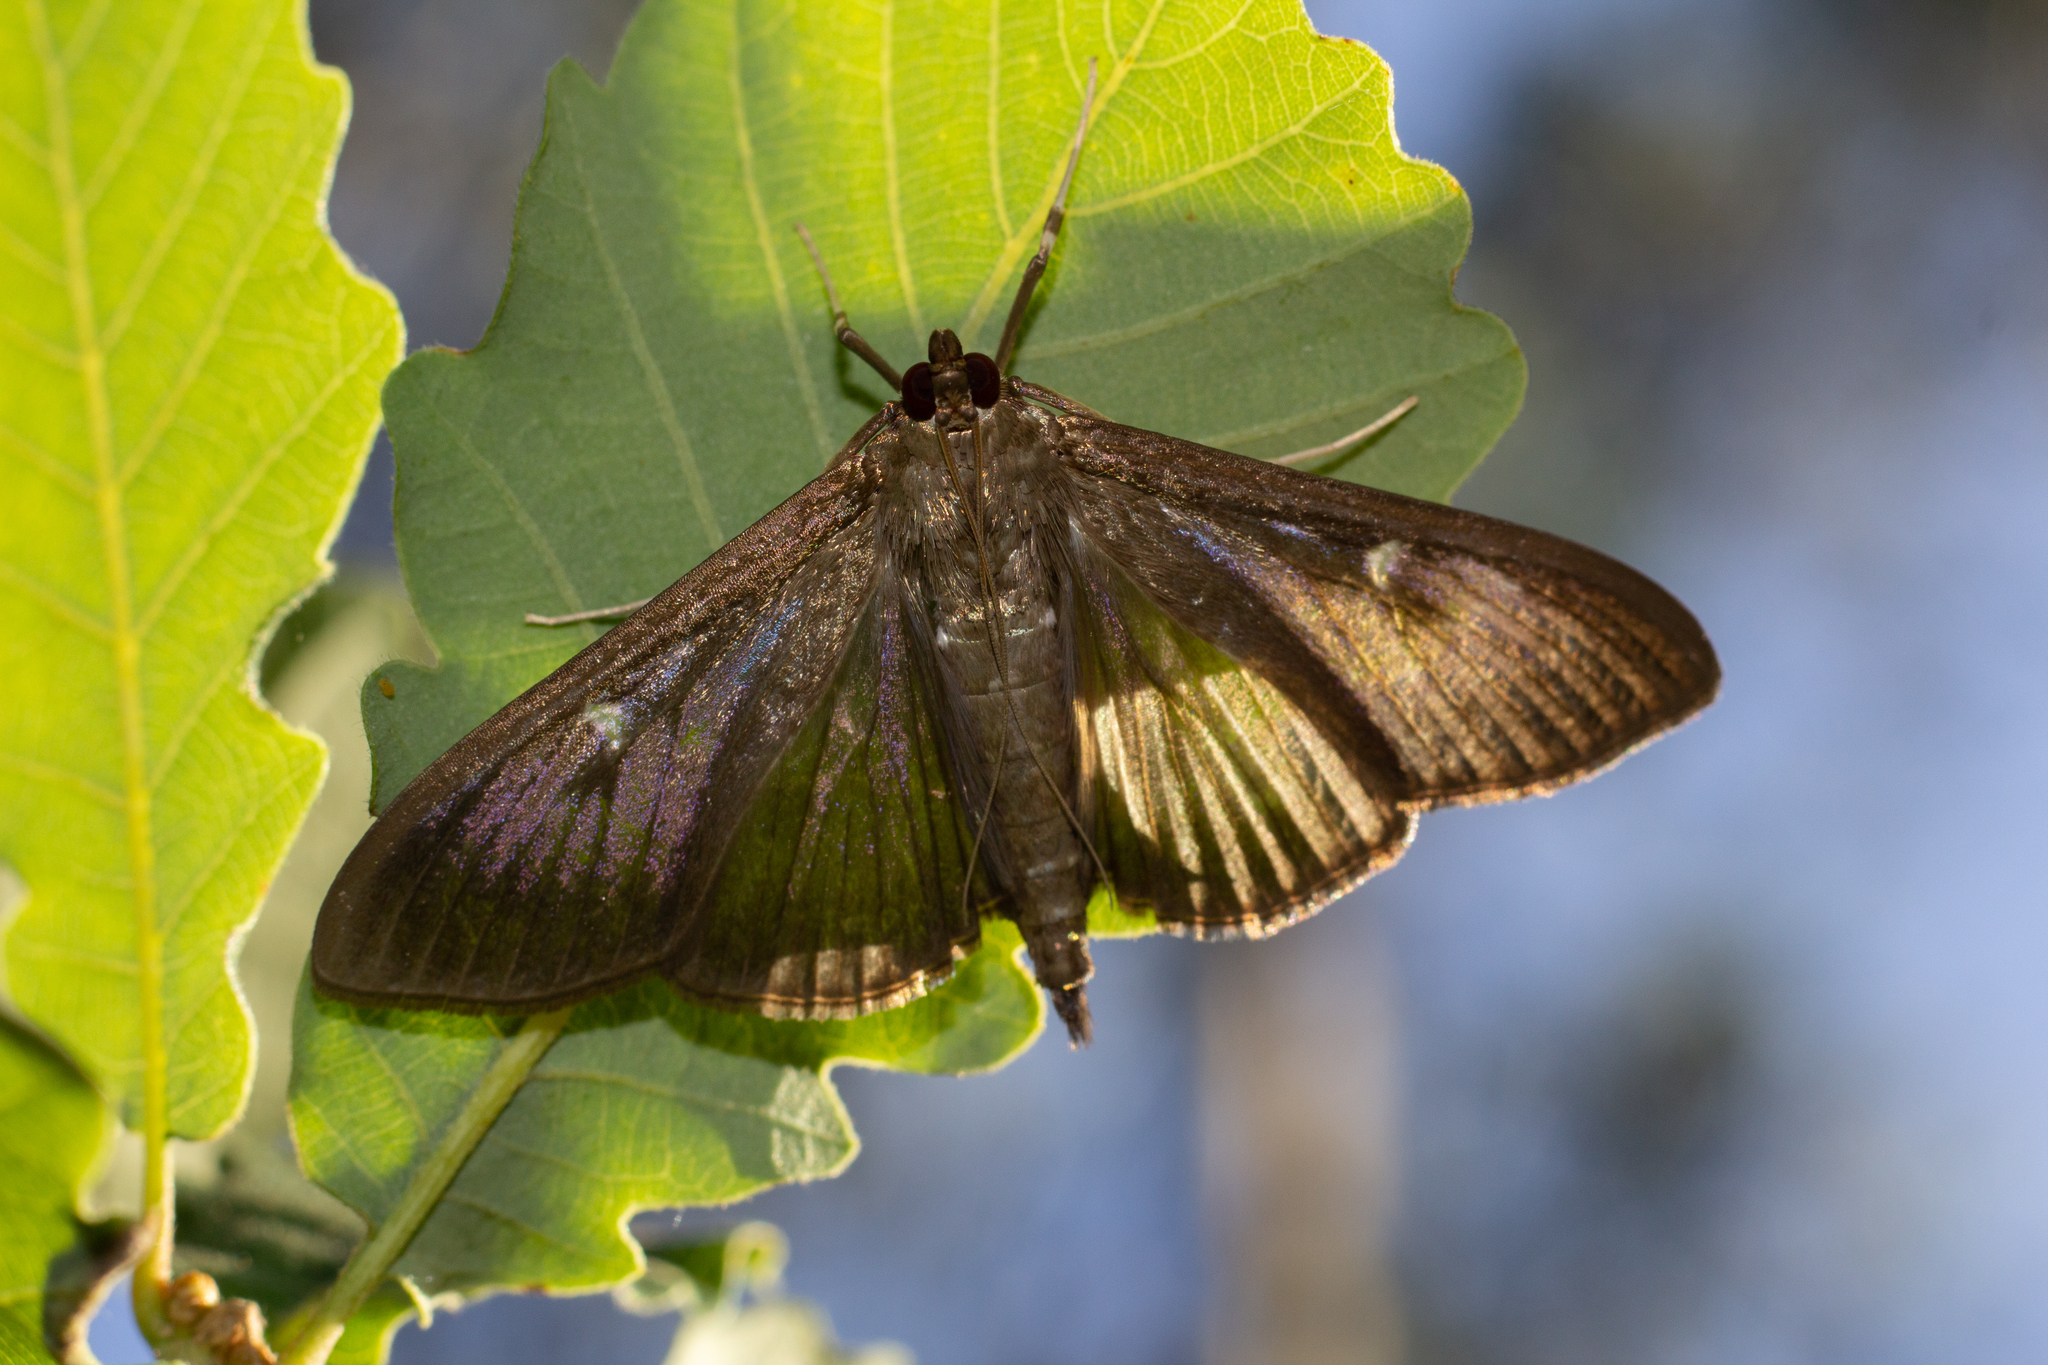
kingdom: Animalia
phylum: Arthropoda
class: Insecta
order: Lepidoptera
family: Crambidae
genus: Cydalima
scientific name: Cydalima perspectalis
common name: Box tree moth
